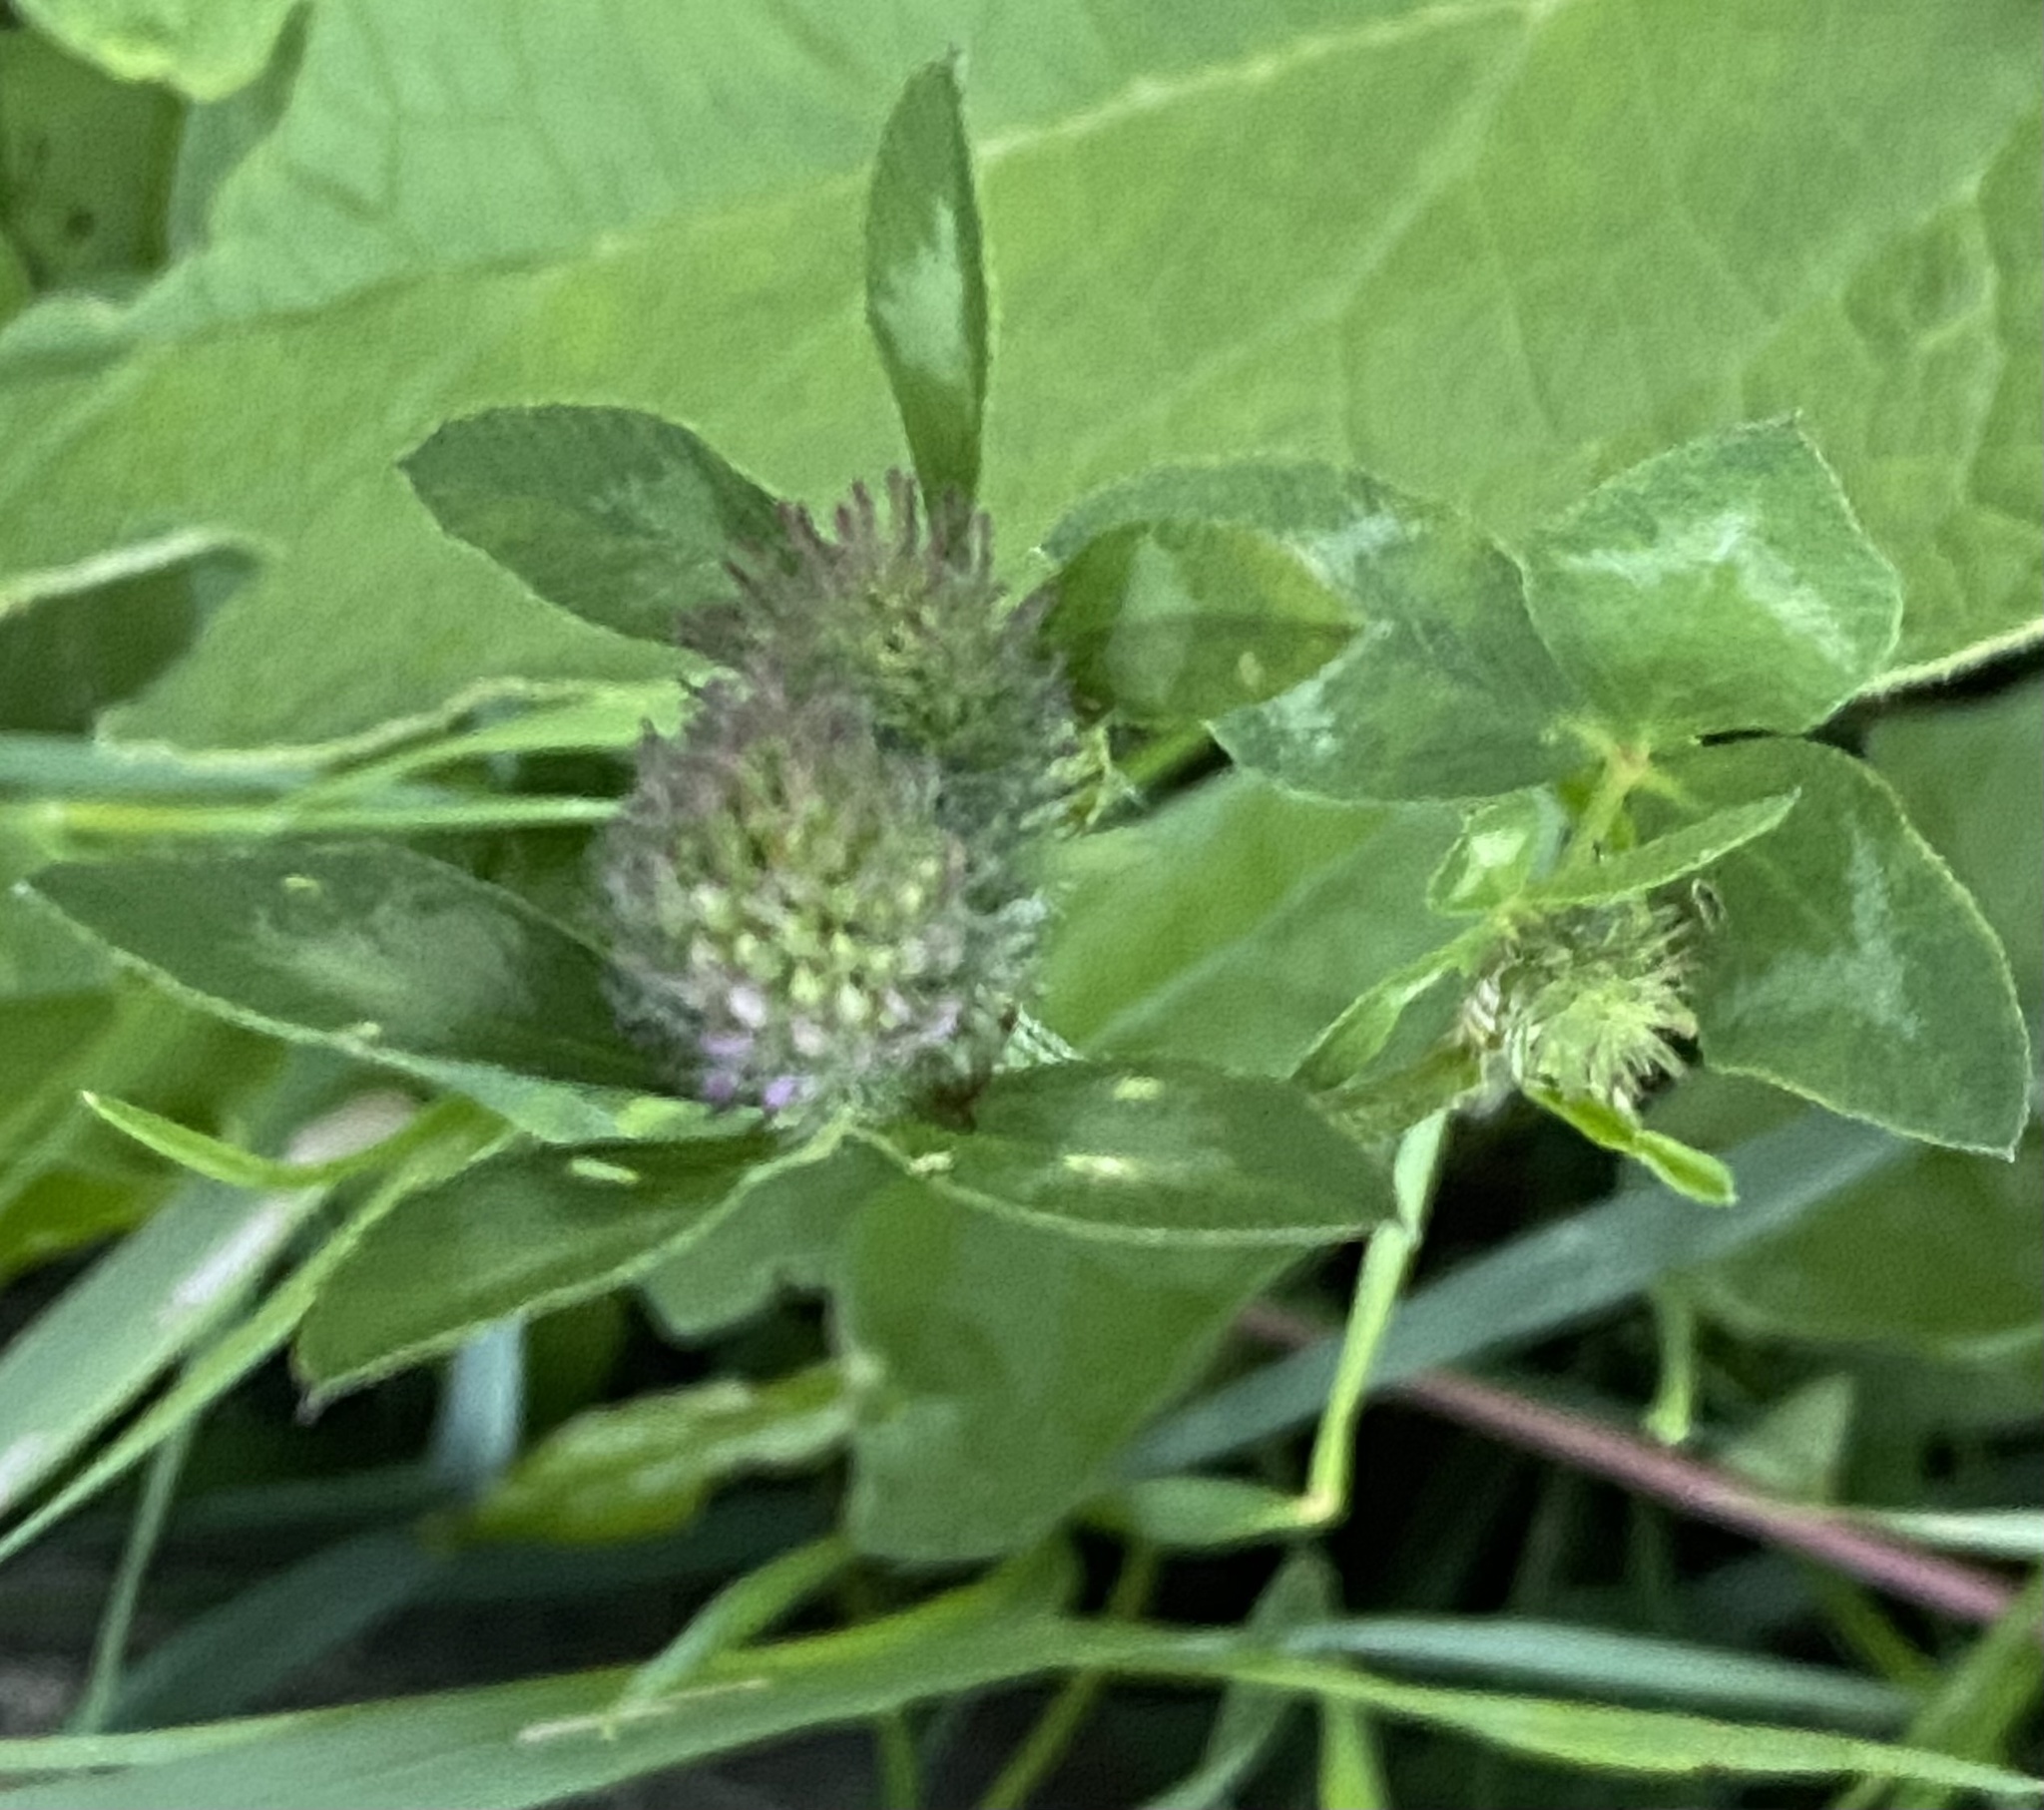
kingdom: Plantae
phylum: Tracheophyta
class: Magnoliopsida
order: Fabales
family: Fabaceae
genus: Trifolium
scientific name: Trifolium pratense
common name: Red clover
